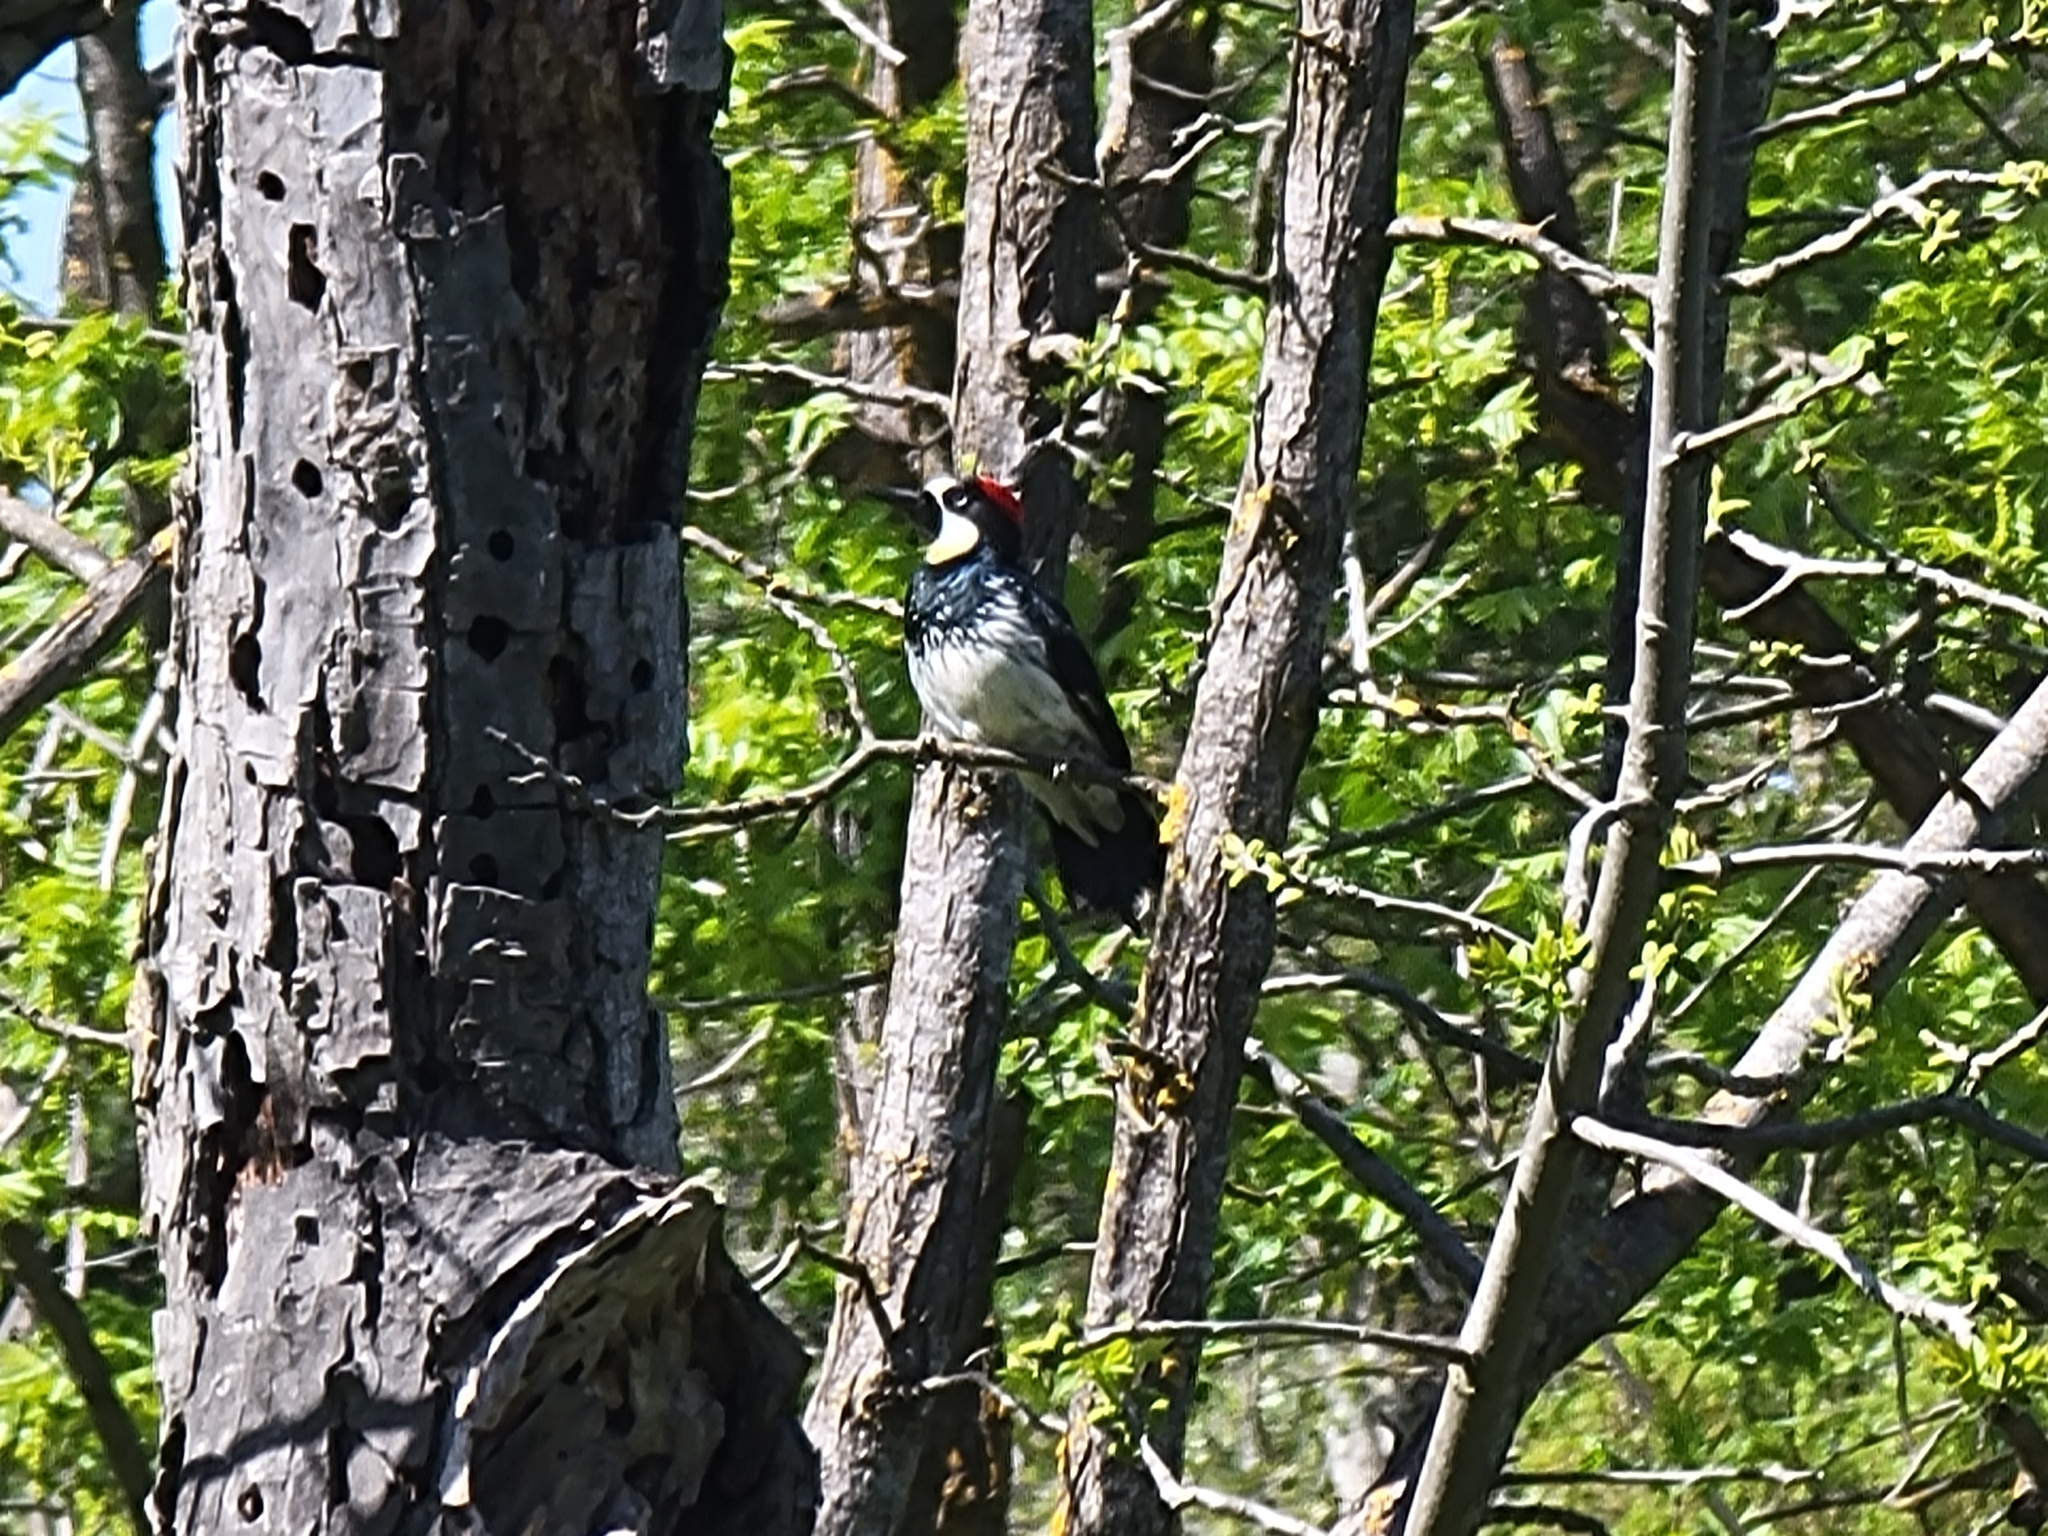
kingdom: Animalia
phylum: Chordata
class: Aves
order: Piciformes
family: Picidae
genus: Melanerpes
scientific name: Melanerpes formicivorus
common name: Acorn woodpecker
